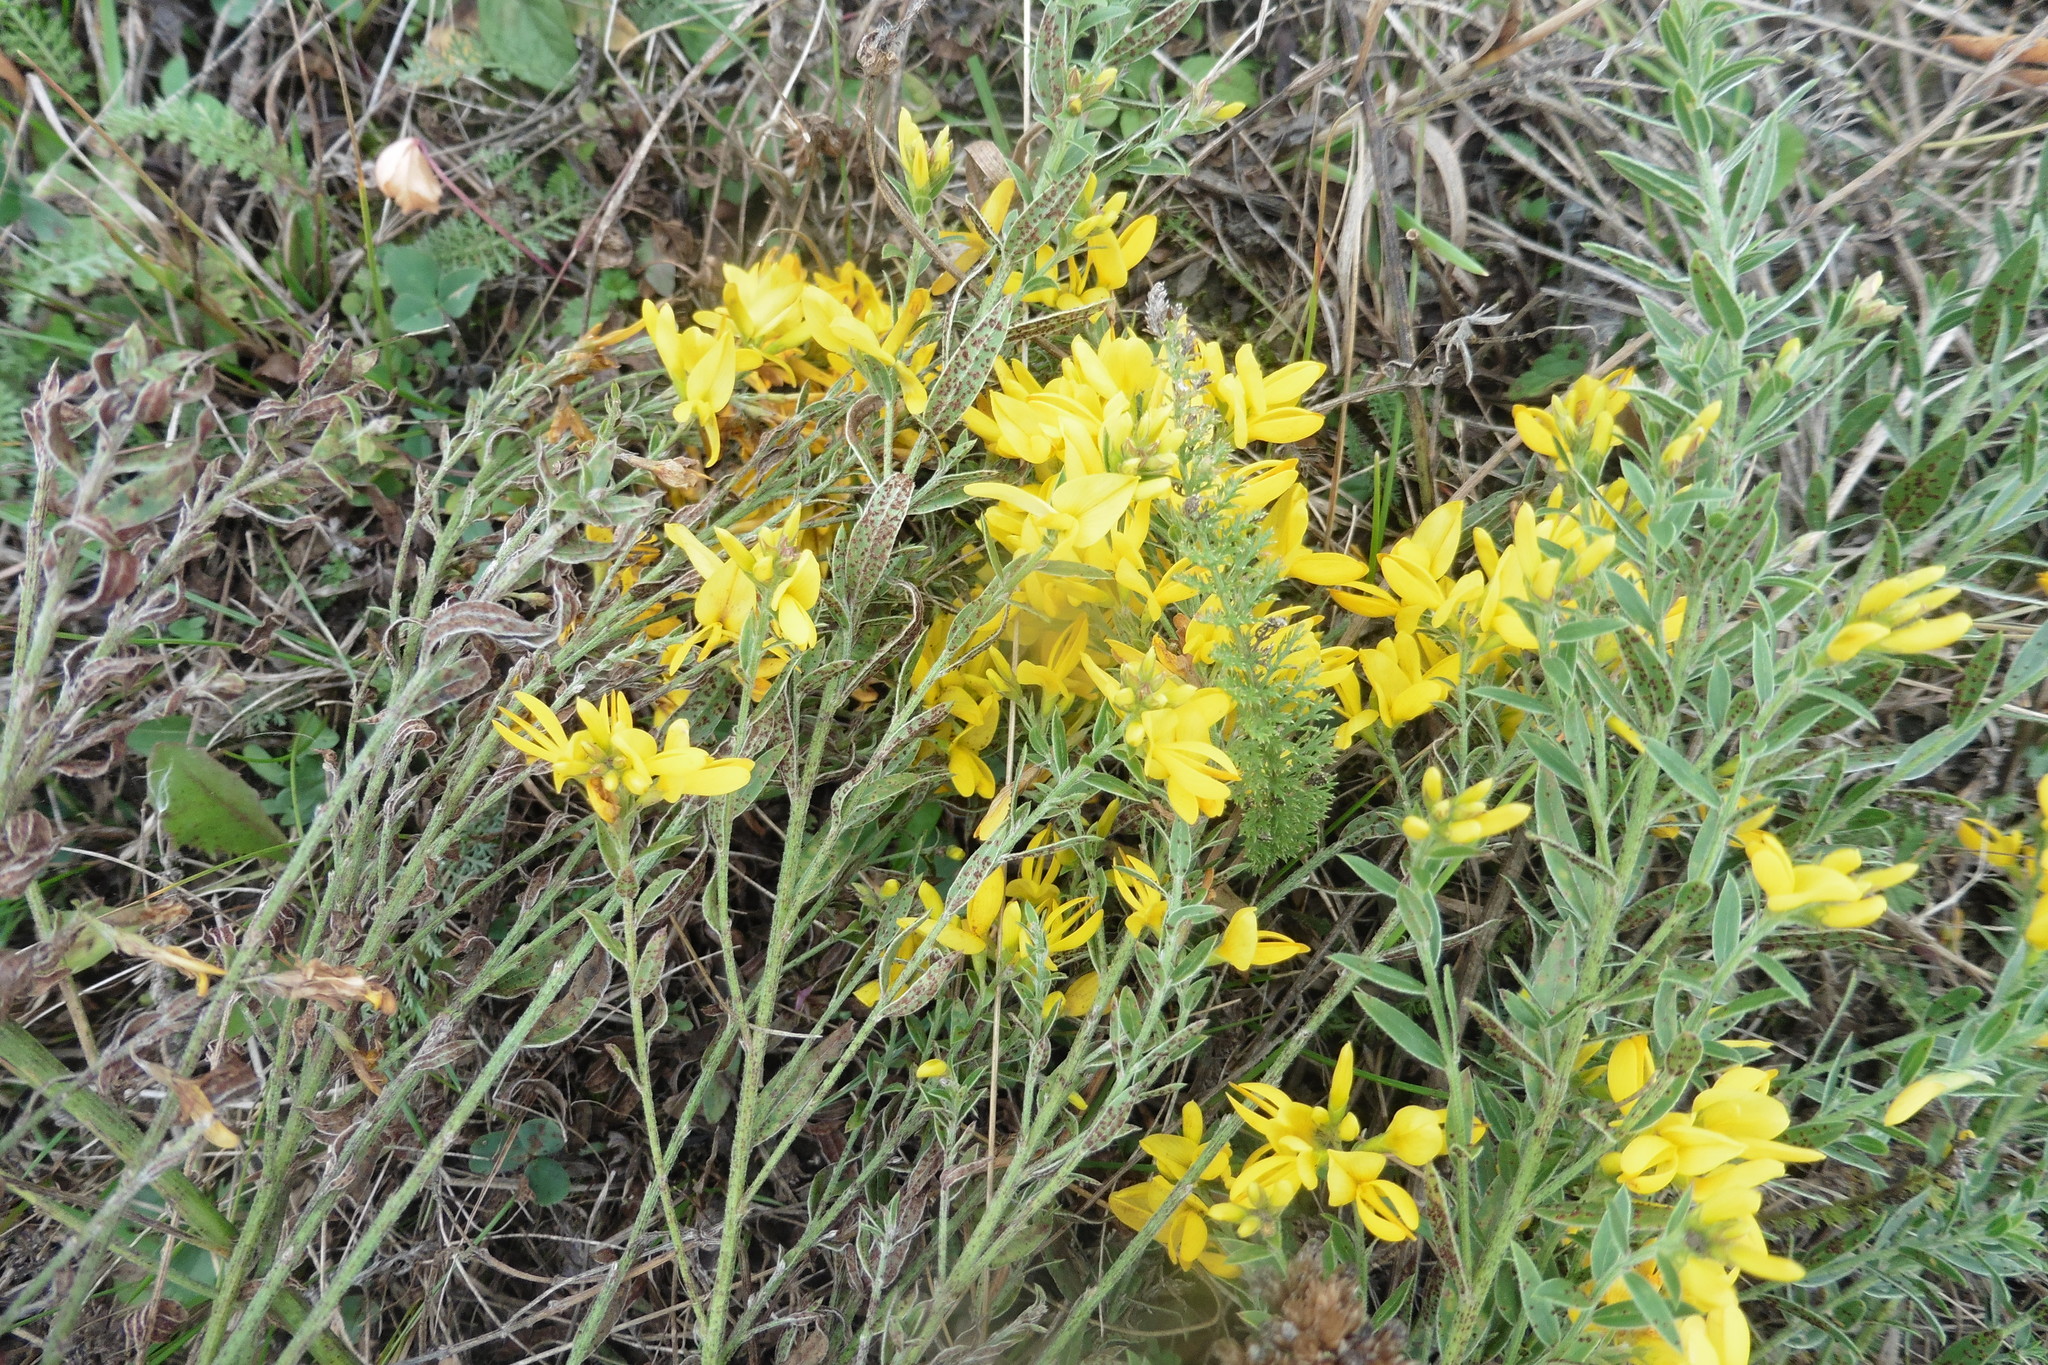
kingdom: Plantae
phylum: Tracheophyta
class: Magnoliopsida
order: Fabales
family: Fabaceae
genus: Genista
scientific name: Genista tinctoria
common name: Dyer's greenweed
